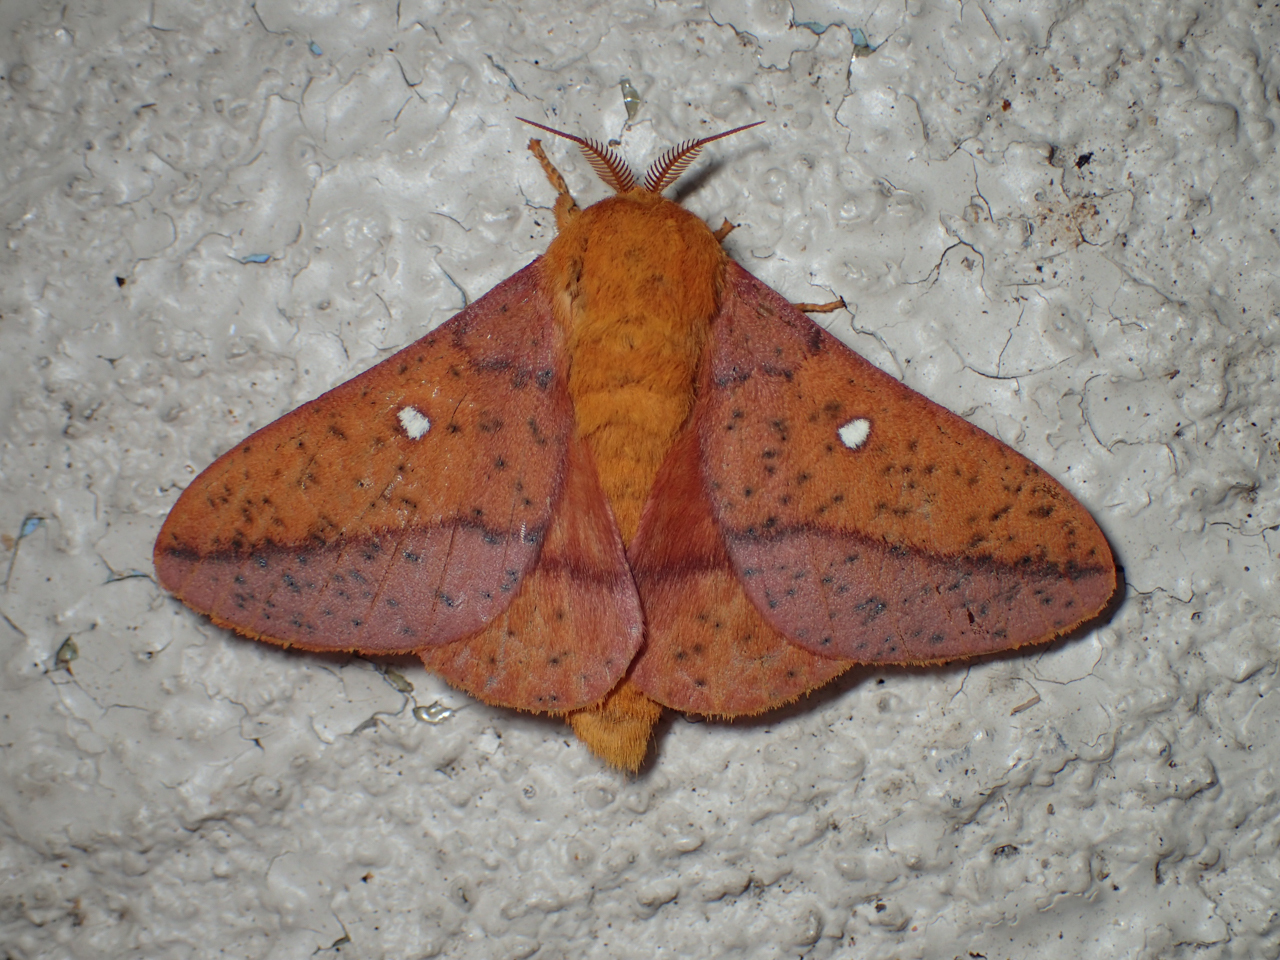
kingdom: Animalia
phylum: Arthropoda
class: Insecta
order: Lepidoptera
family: Saturniidae
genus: Anisota
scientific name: Anisota stigma
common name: Spiny oakworm moth
